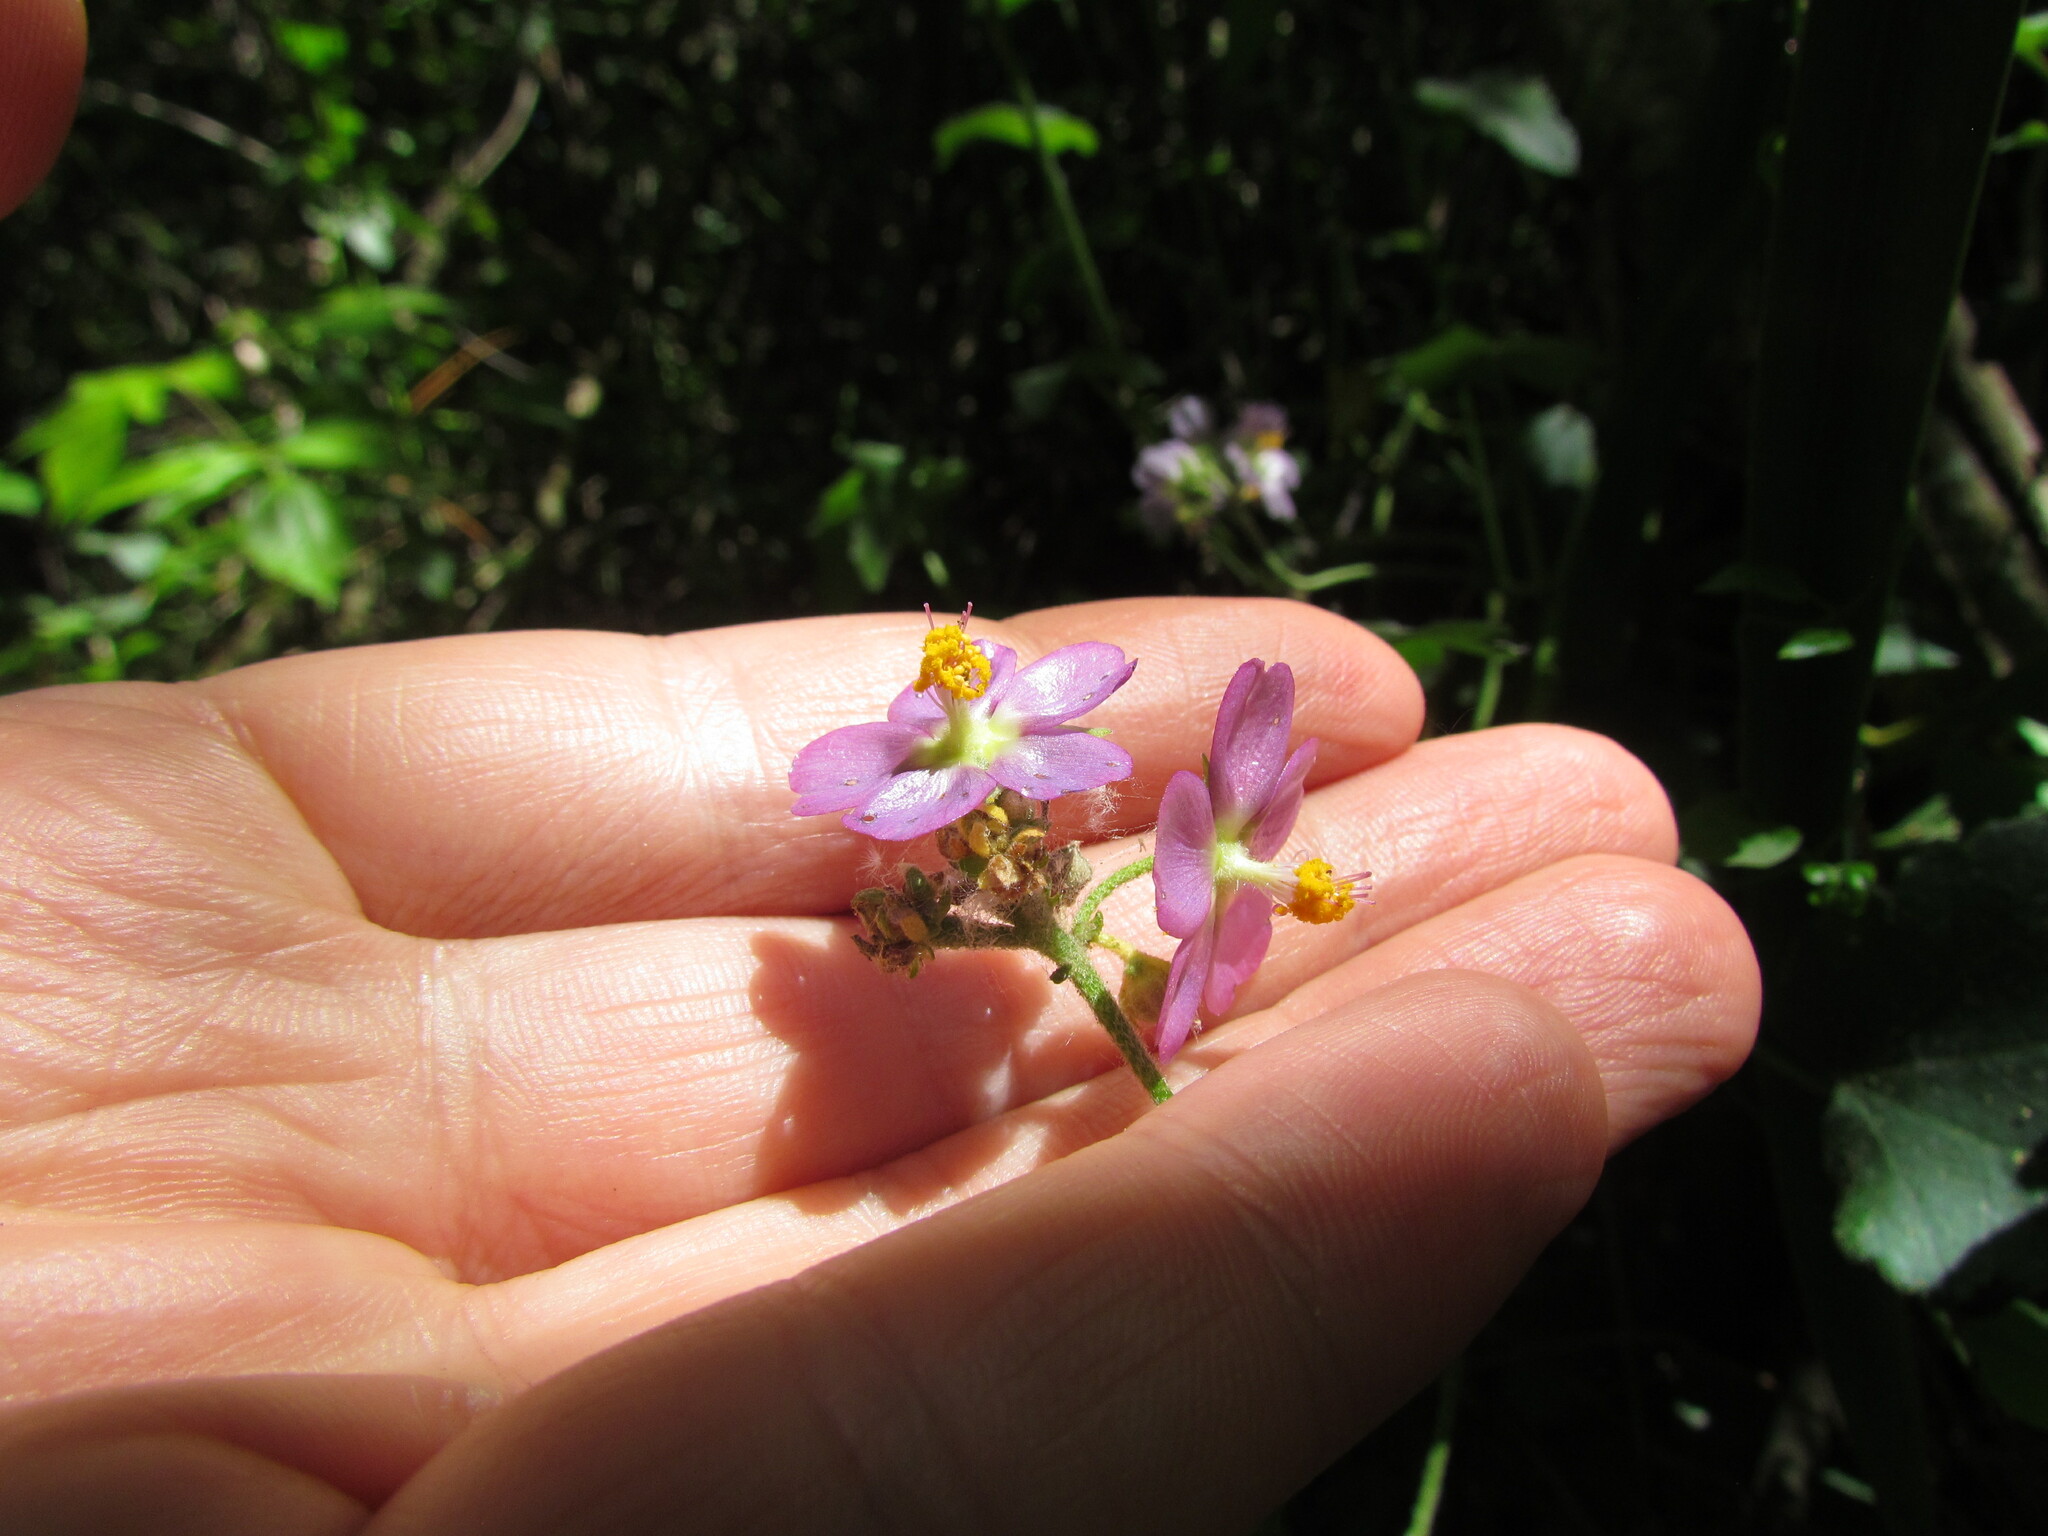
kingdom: Plantae
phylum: Tracheophyta
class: Magnoliopsida
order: Malvales
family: Malvaceae
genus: Monteiroa
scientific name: Monteiroa glomerata
